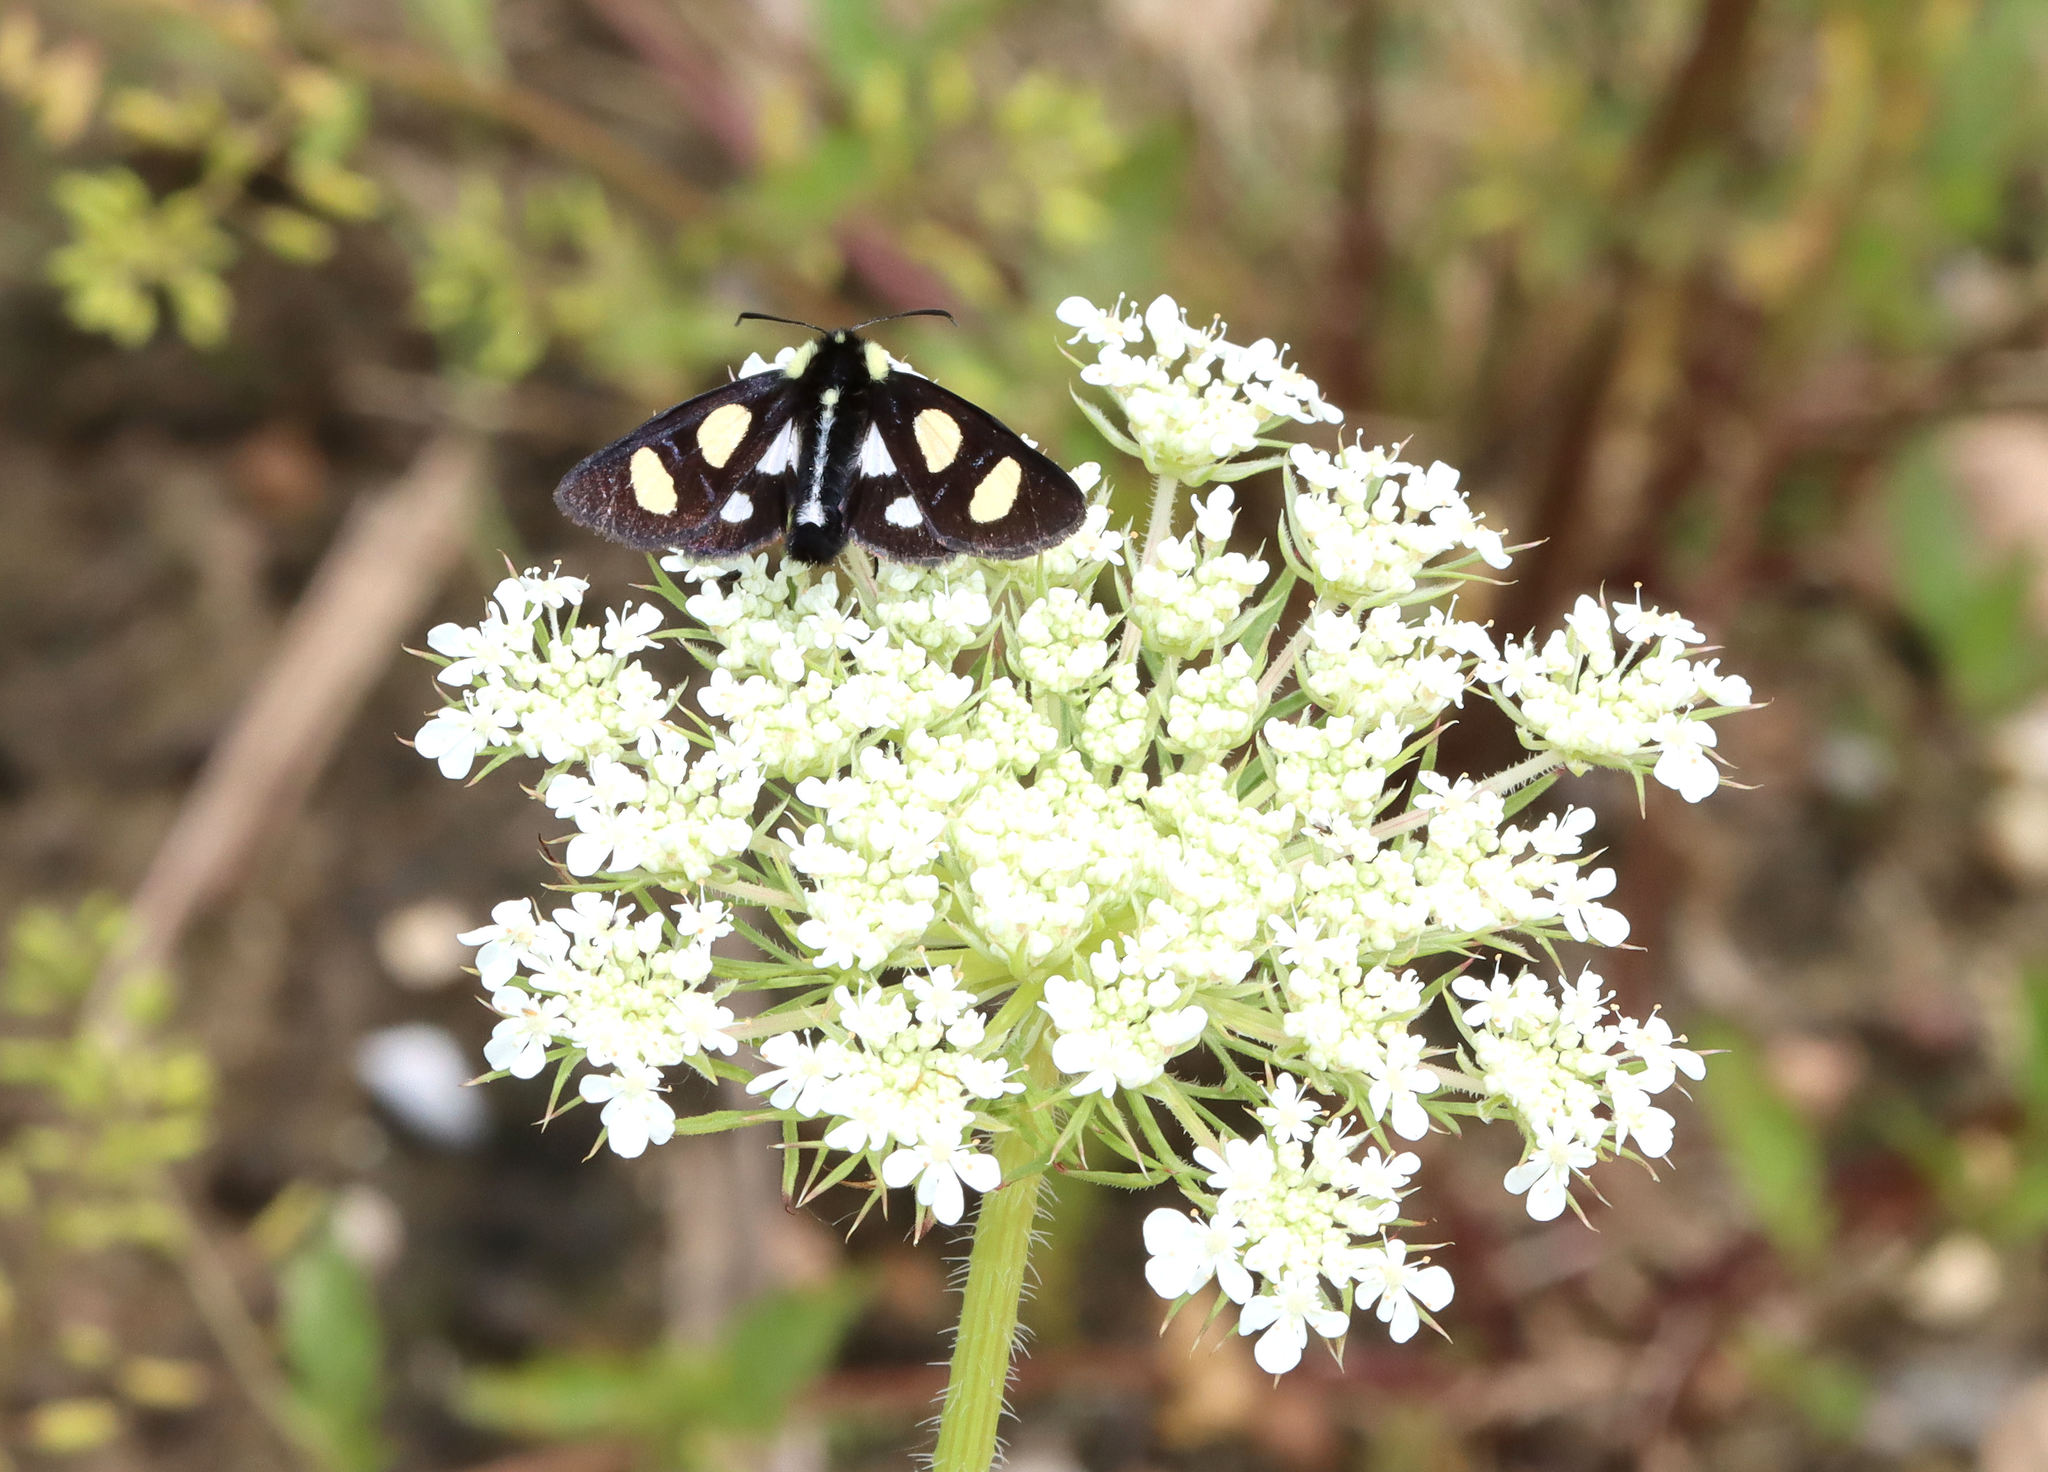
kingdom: Animalia
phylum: Arthropoda
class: Insecta
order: Lepidoptera
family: Noctuidae
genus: Alypia
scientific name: Alypia octomaculata
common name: Eight-spotted forester
